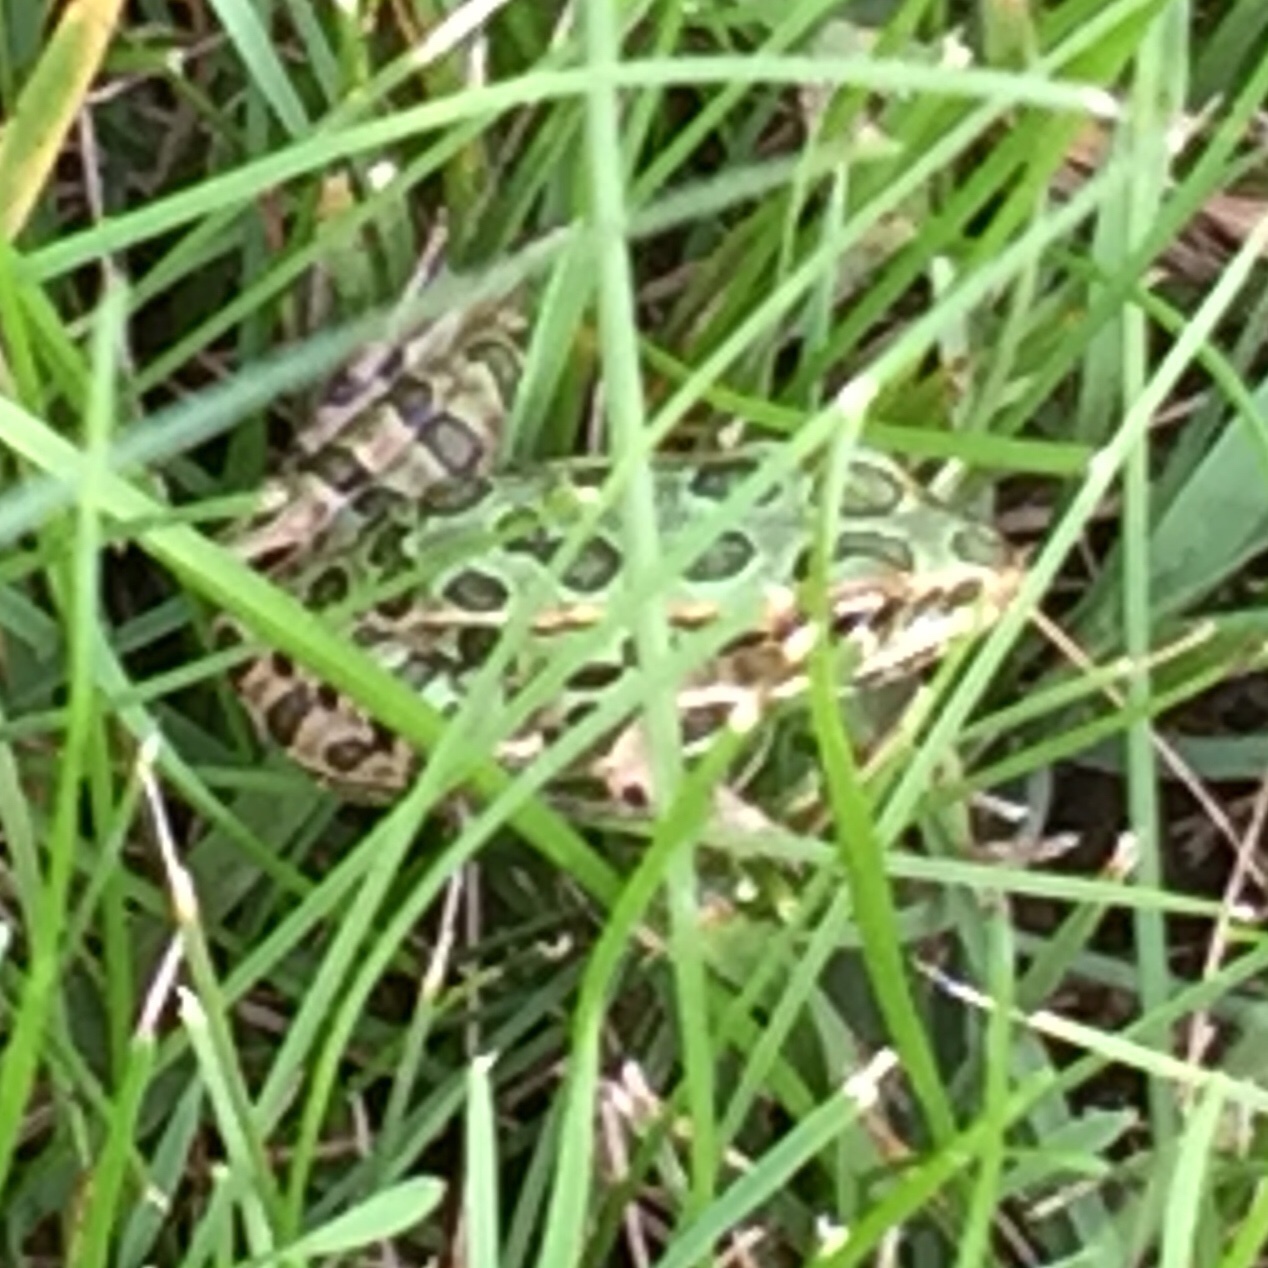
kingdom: Animalia
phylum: Chordata
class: Amphibia
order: Anura
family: Ranidae
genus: Lithobates
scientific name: Lithobates pipiens
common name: Northern leopard frog
